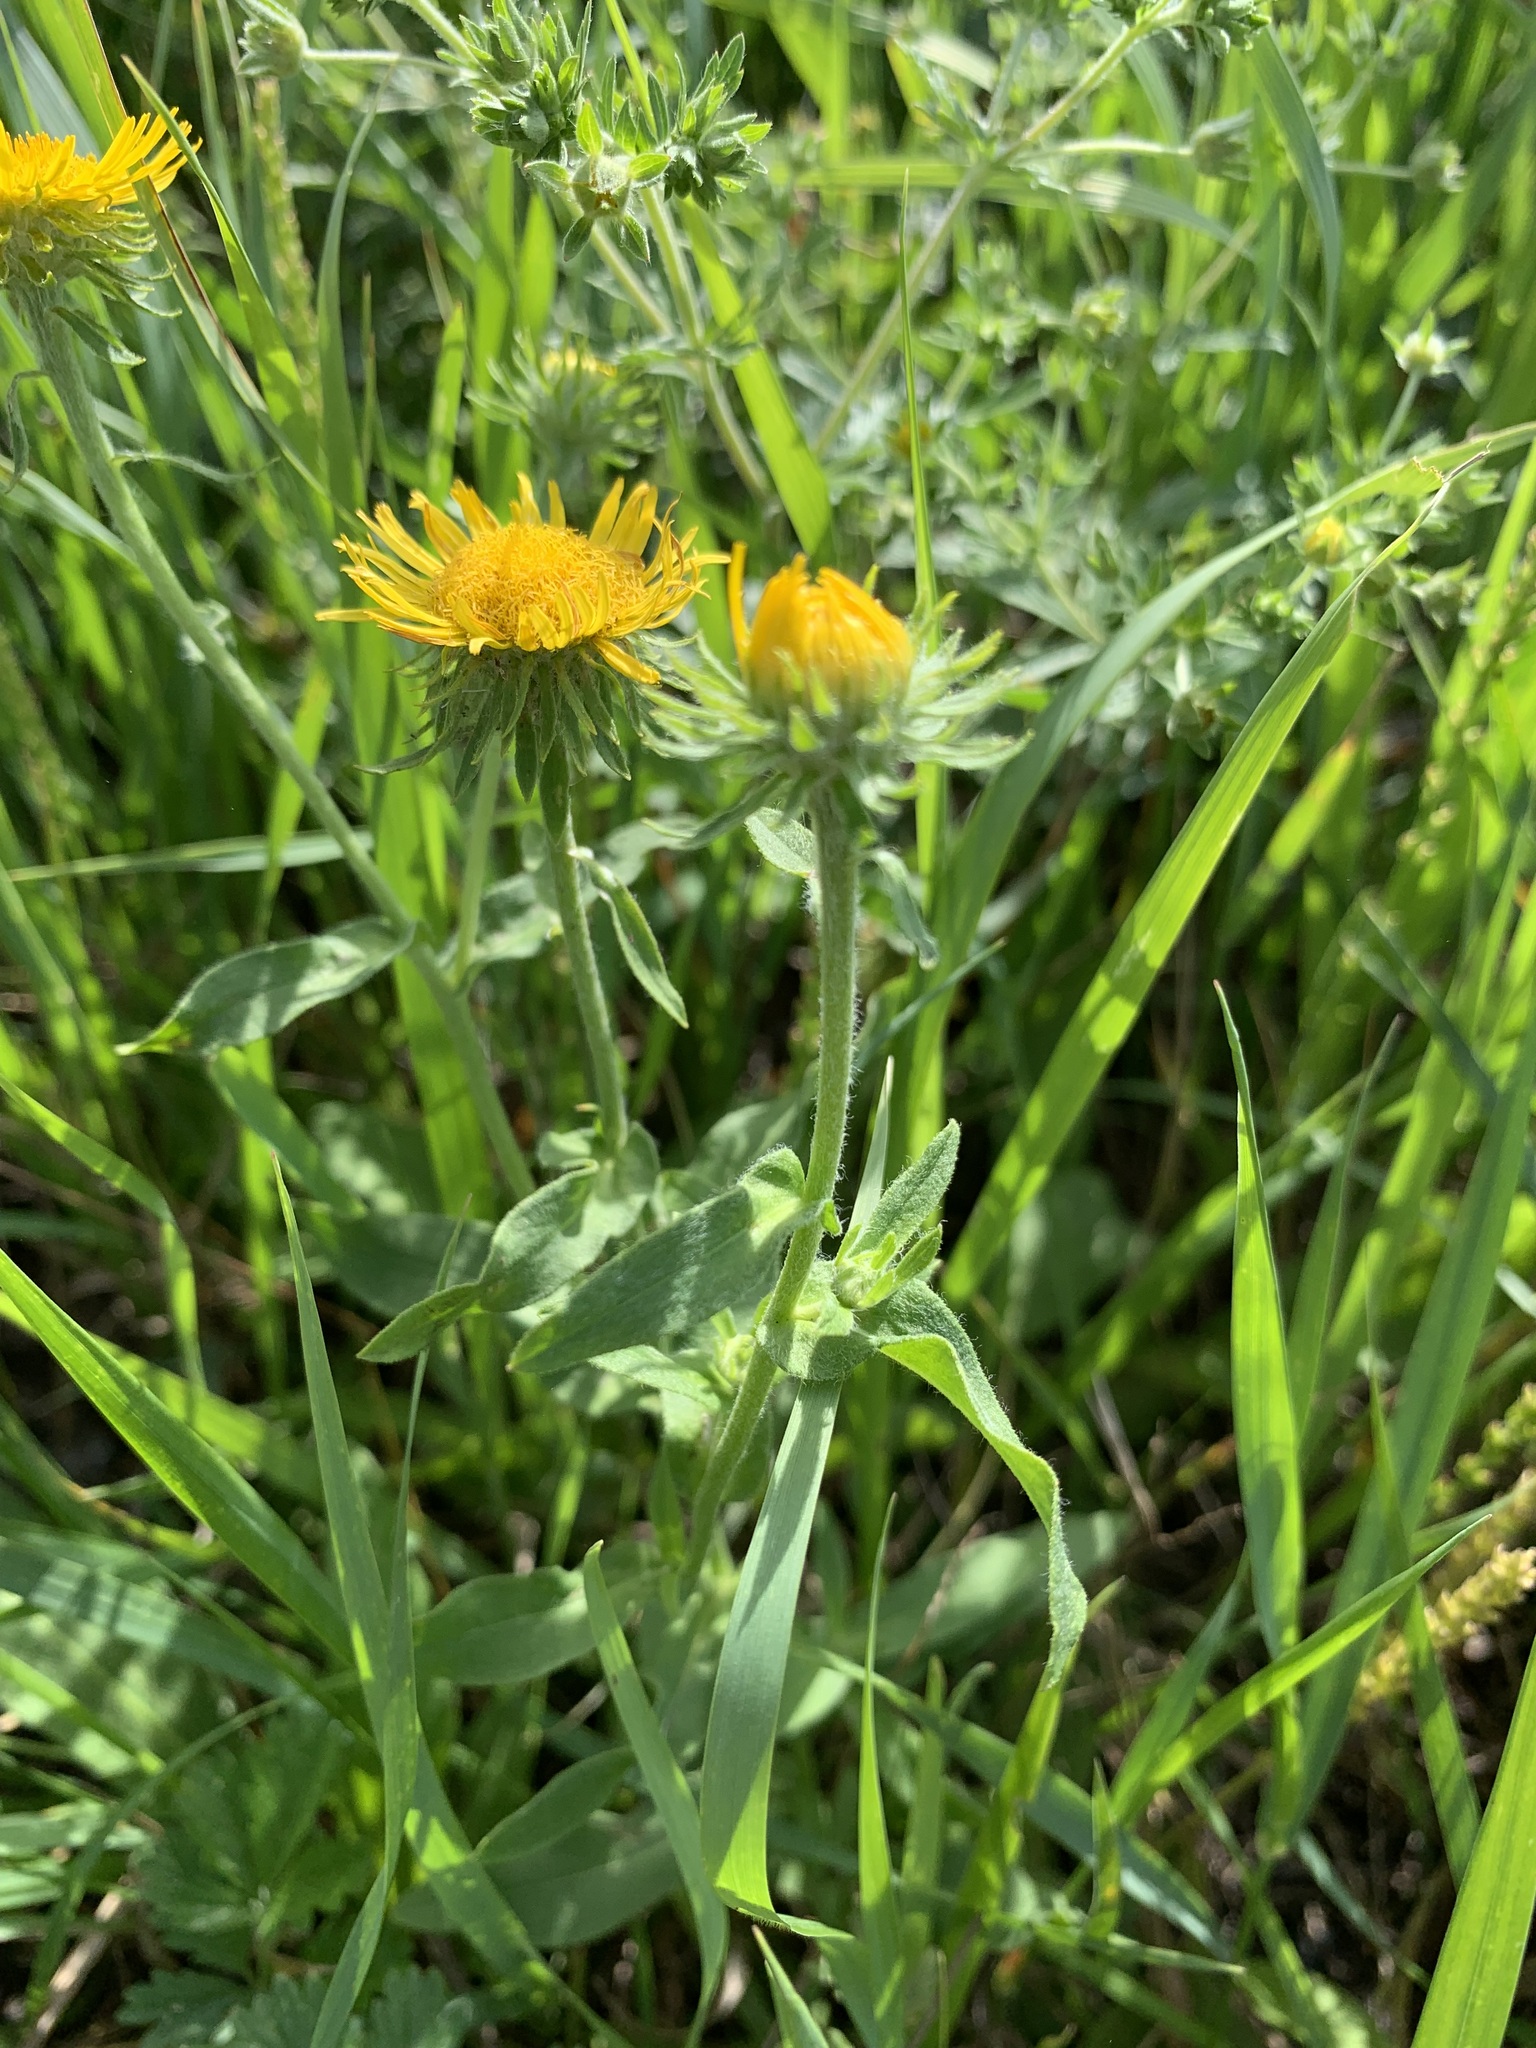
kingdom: Plantae
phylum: Tracheophyta
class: Magnoliopsida
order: Asterales
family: Asteraceae
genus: Pentanema
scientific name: Pentanema britannicum
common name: British elecampane
